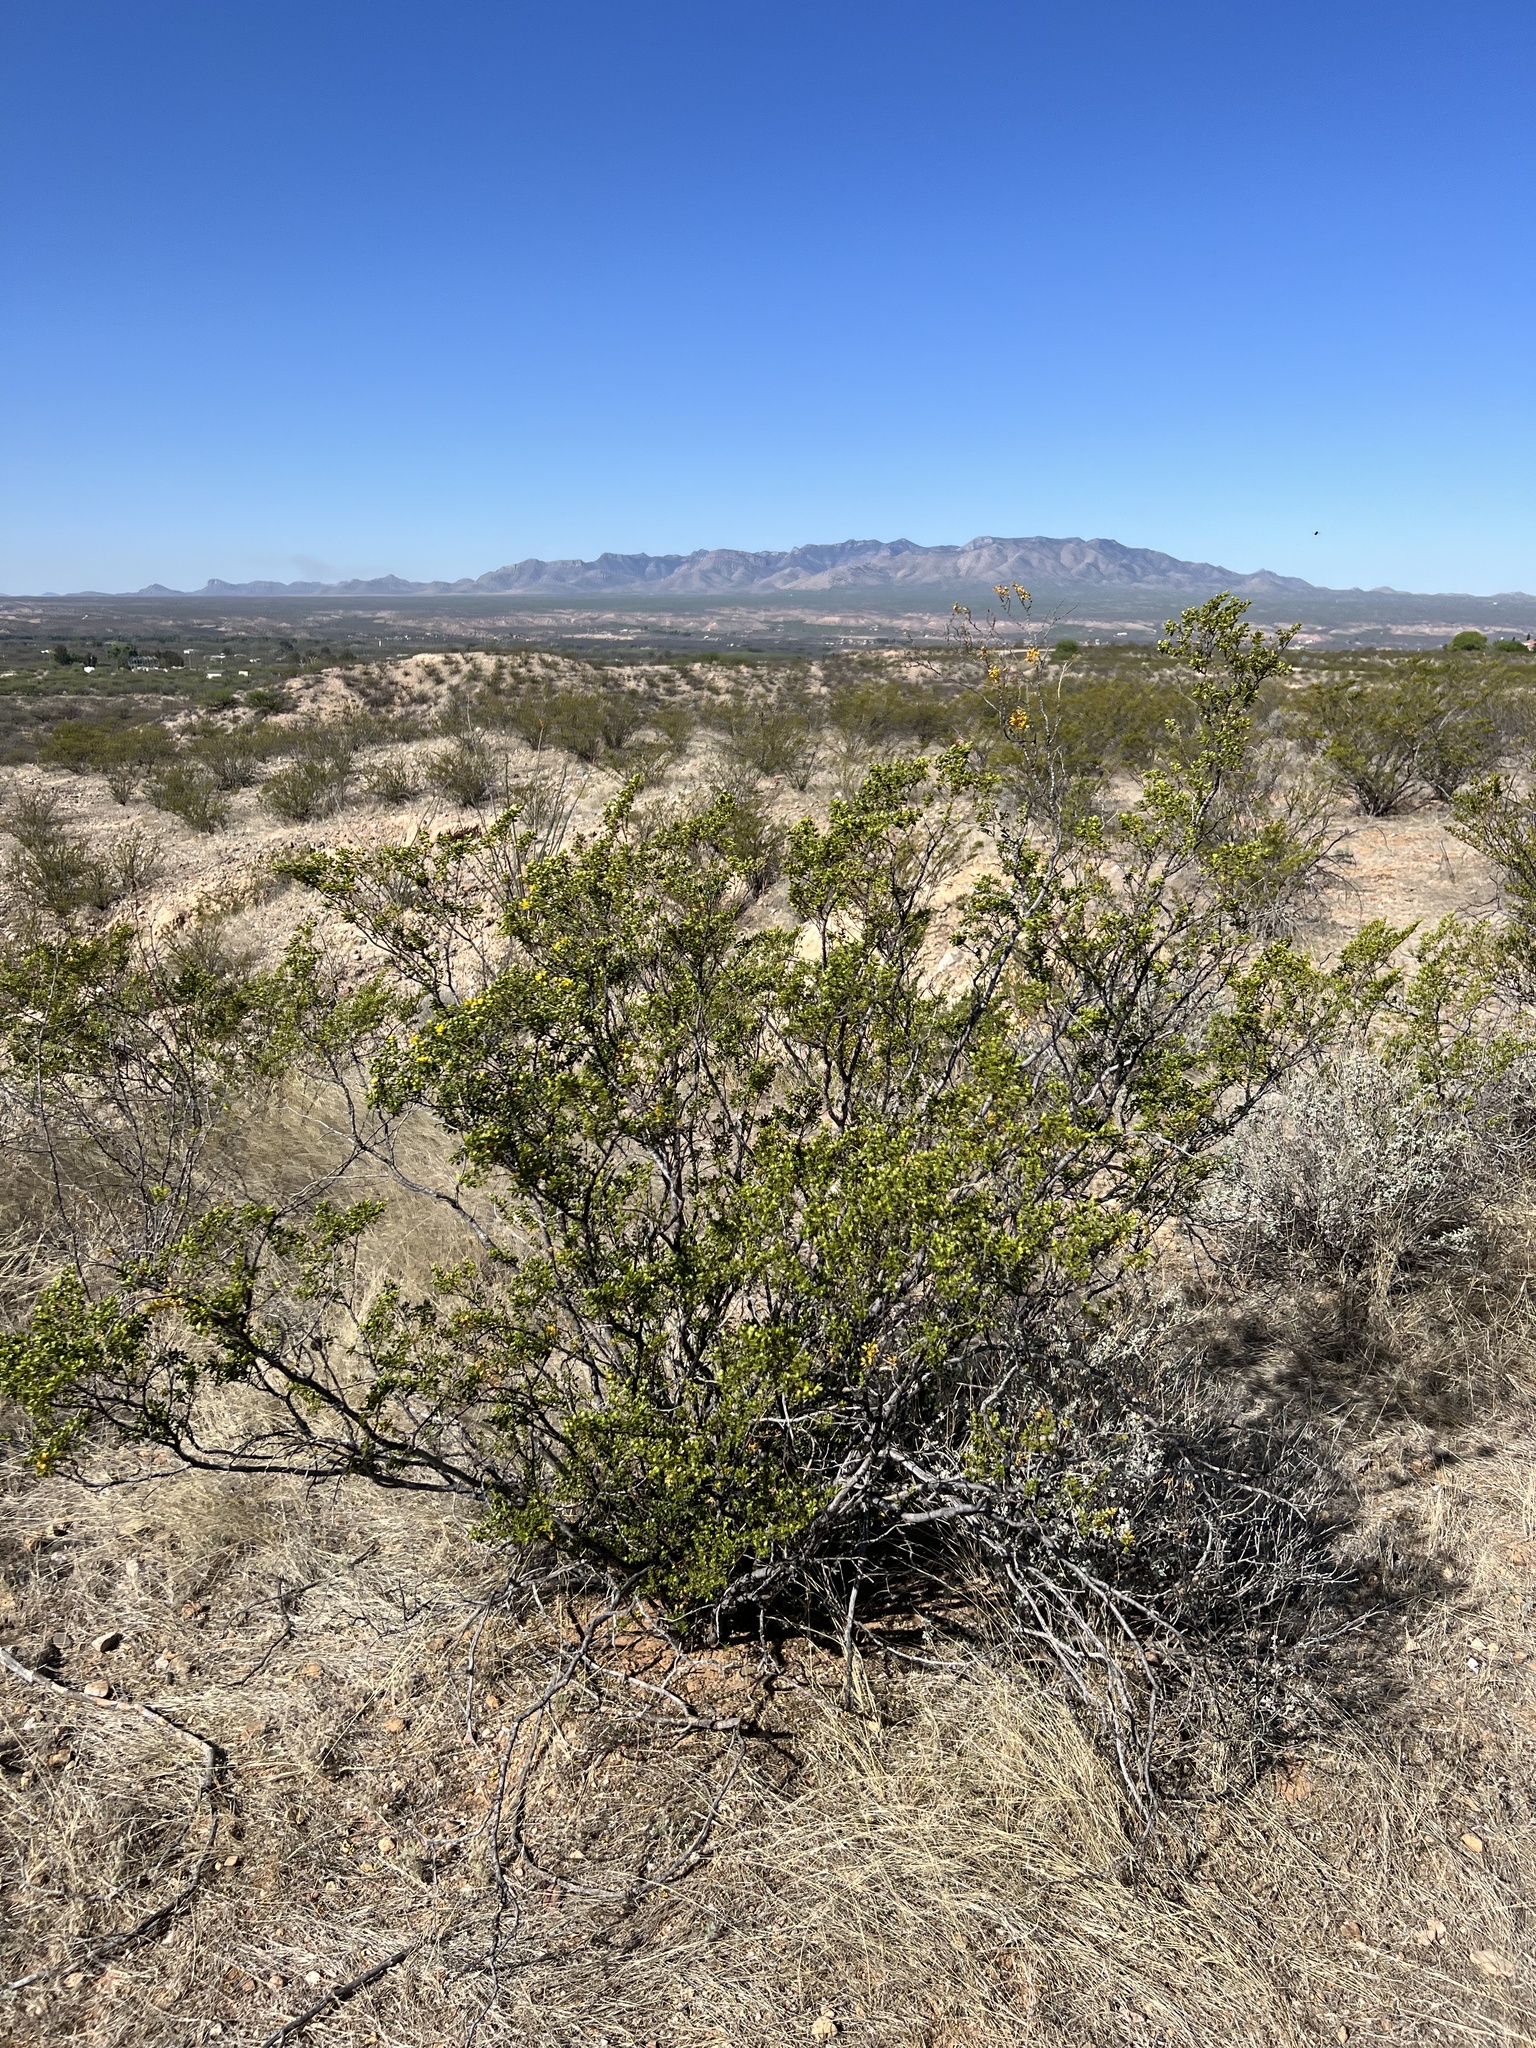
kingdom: Plantae
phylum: Tracheophyta
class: Magnoliopsida
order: Zygophyllales
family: Zygophyllaceae
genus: Larrea
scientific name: Larrea tridentata
